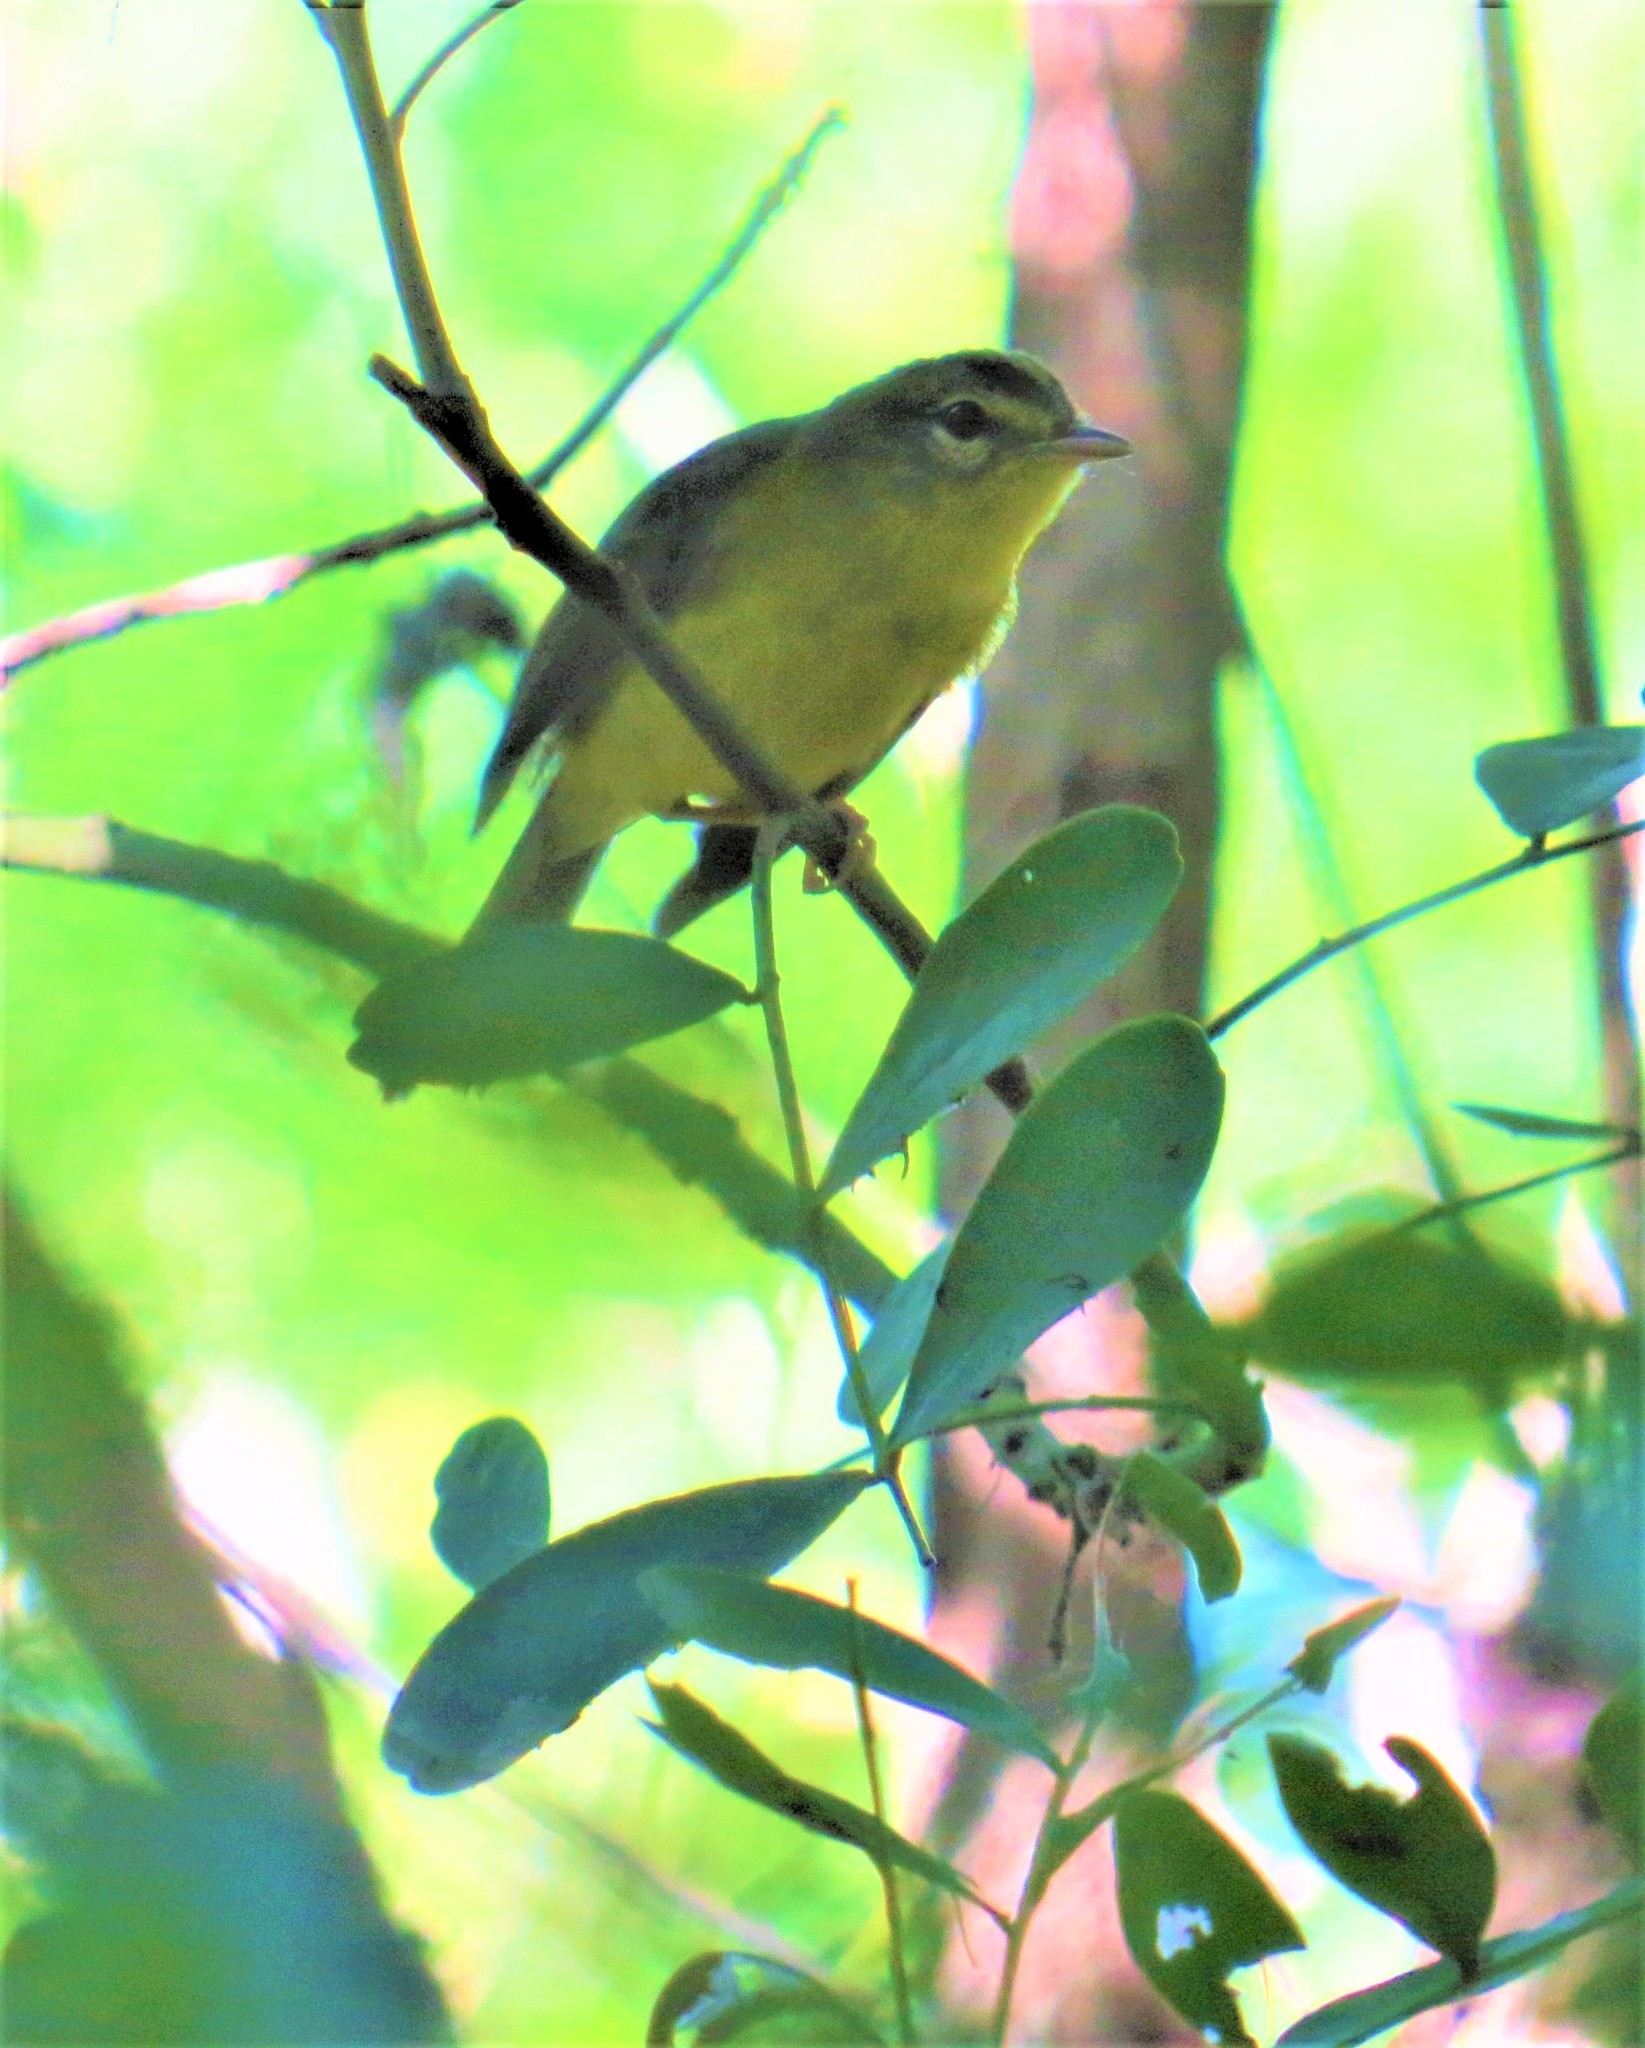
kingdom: Animalia
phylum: Chordata
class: Aves
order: Passeriformes
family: Parulidae
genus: Basileuterus
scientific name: Basileuterus culicivorus
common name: Golden-crowned warbler
